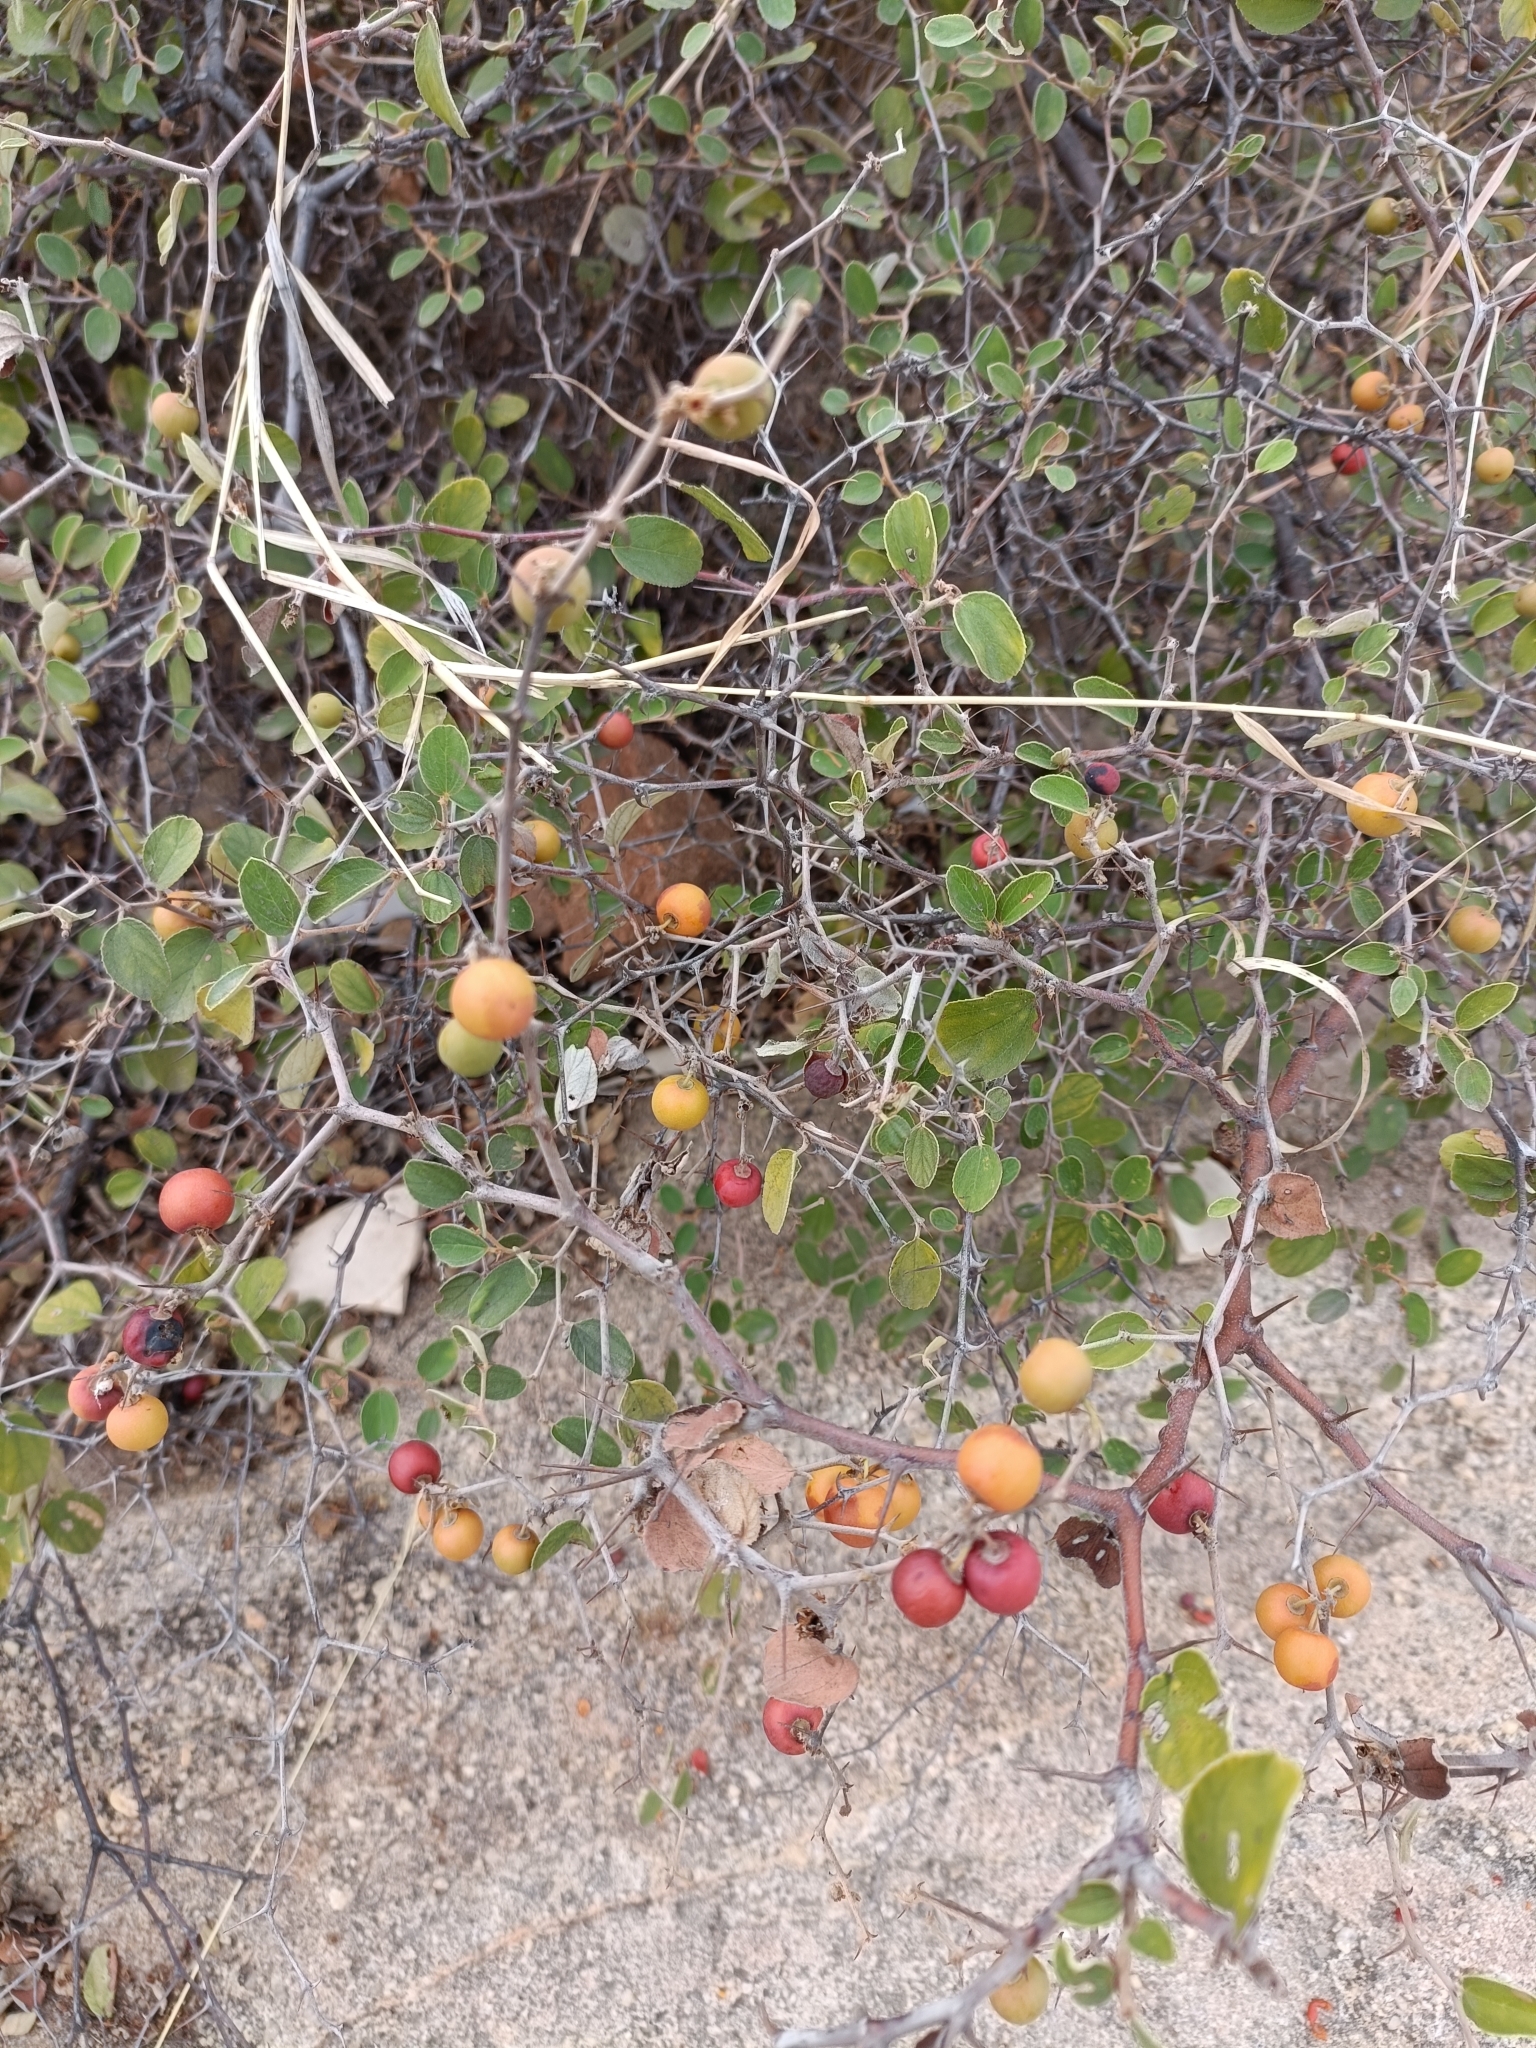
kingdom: Plantae
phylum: Tracheophyta
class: Magnoliopsida
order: Rosales
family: Rhamnaceae
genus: Ziziphus
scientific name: Ziziphus nummularia
